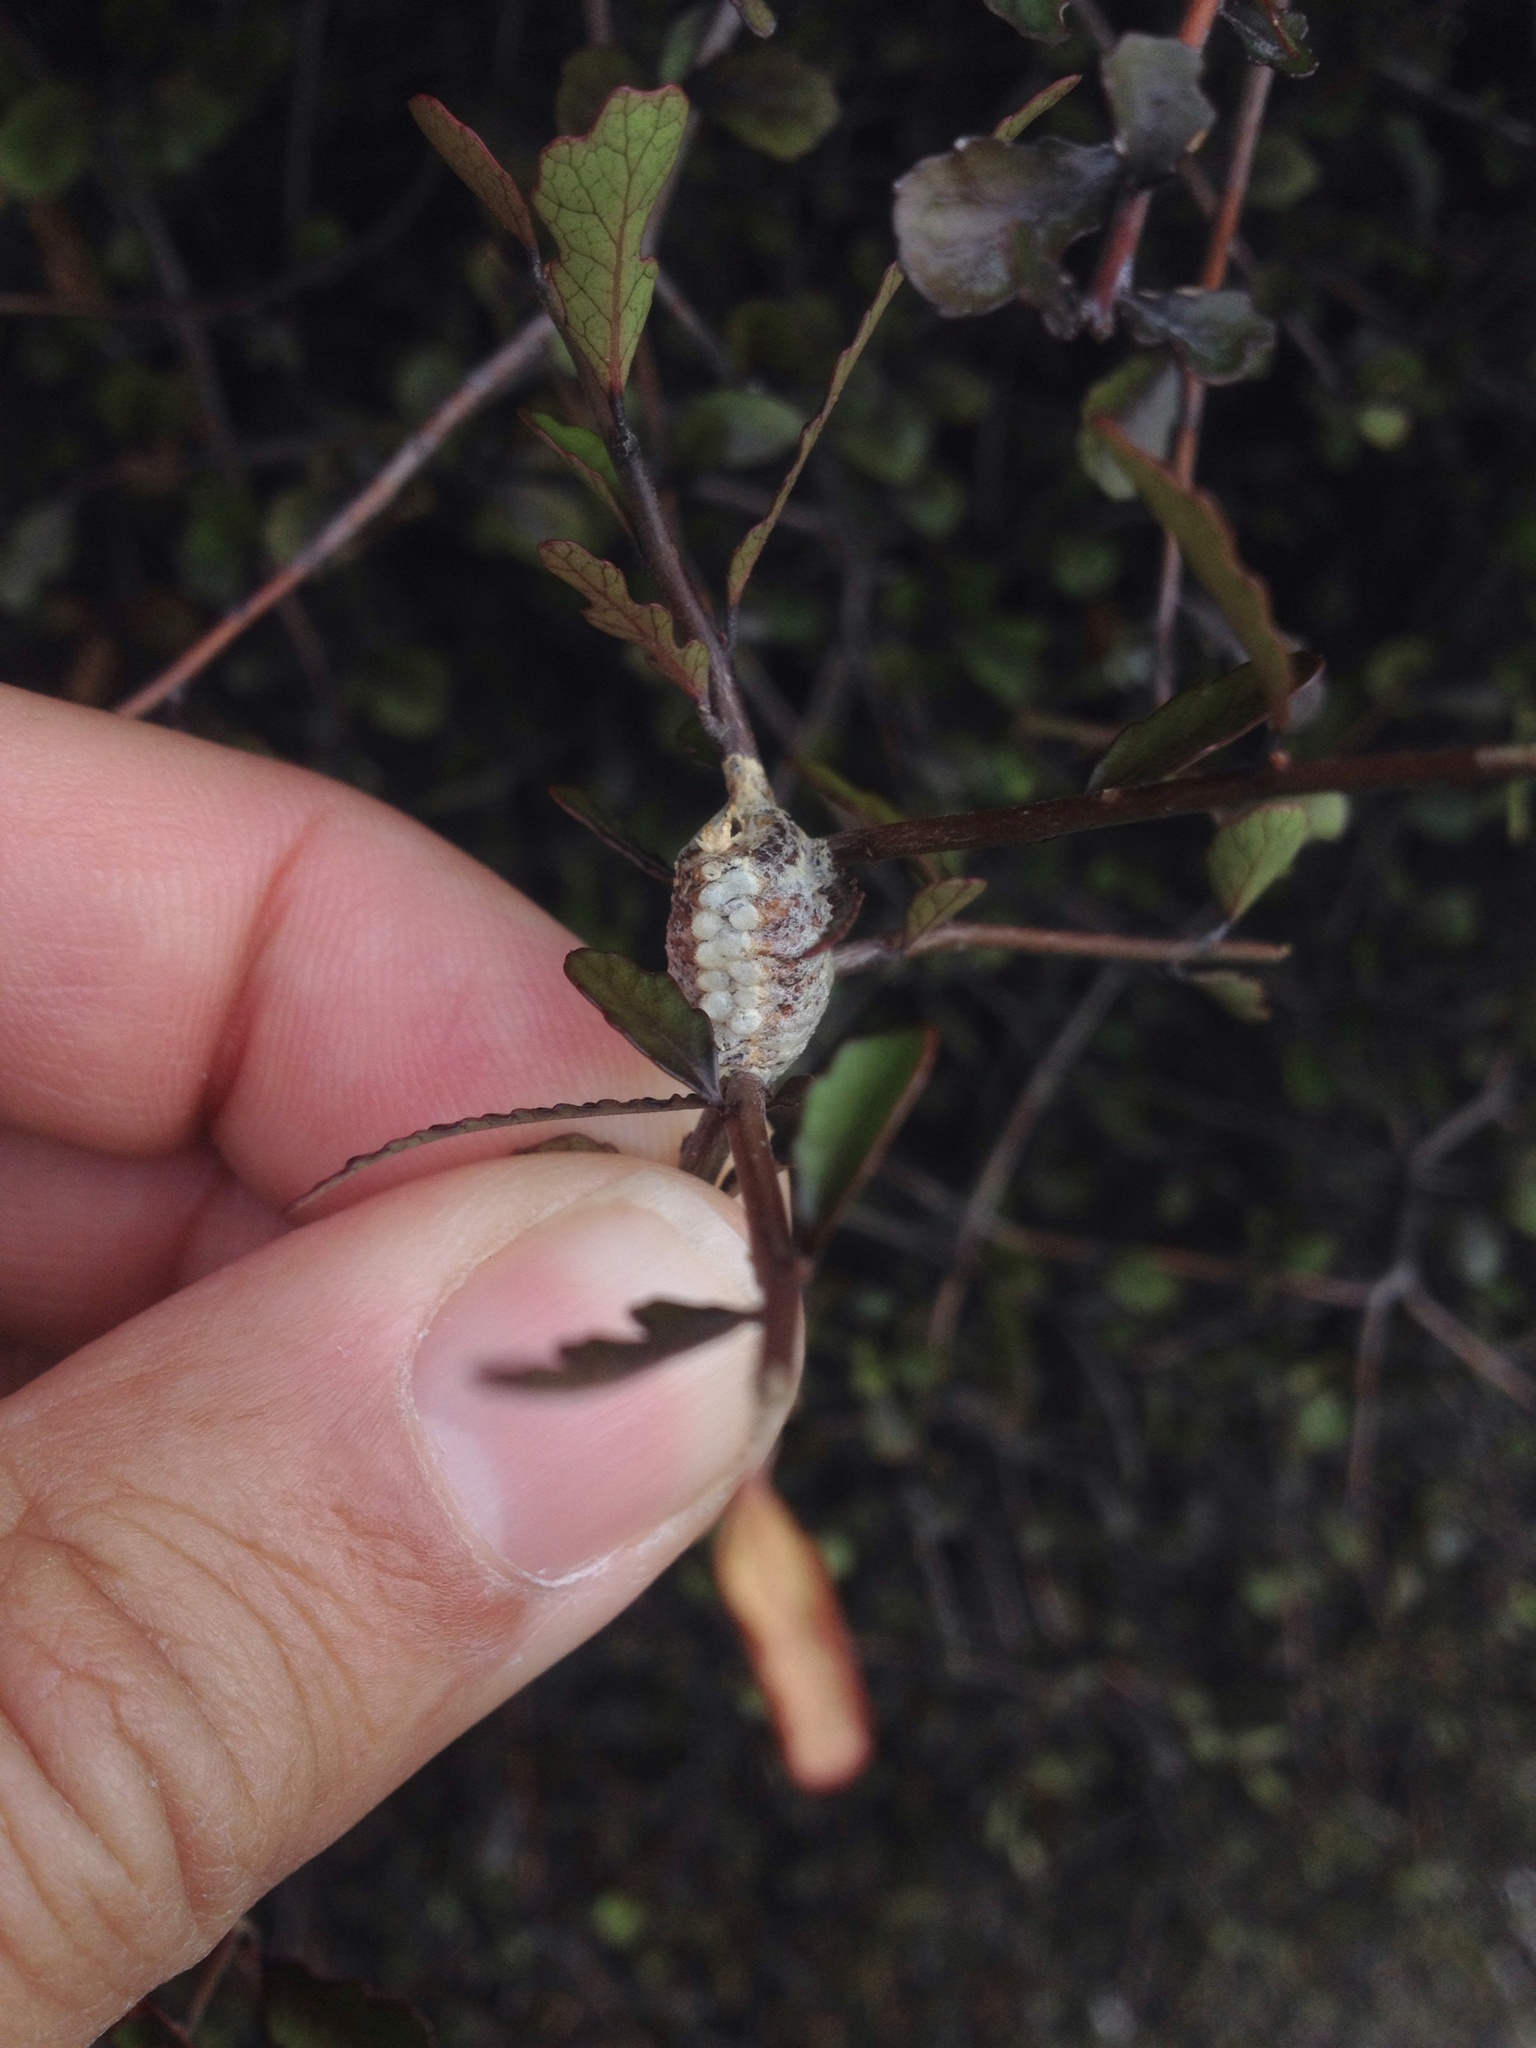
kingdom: Animalia
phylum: Arthropoda
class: Insecta
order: Mantodea
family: Mantidae
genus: Orthodera
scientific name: Orthodera novaezealandiae
